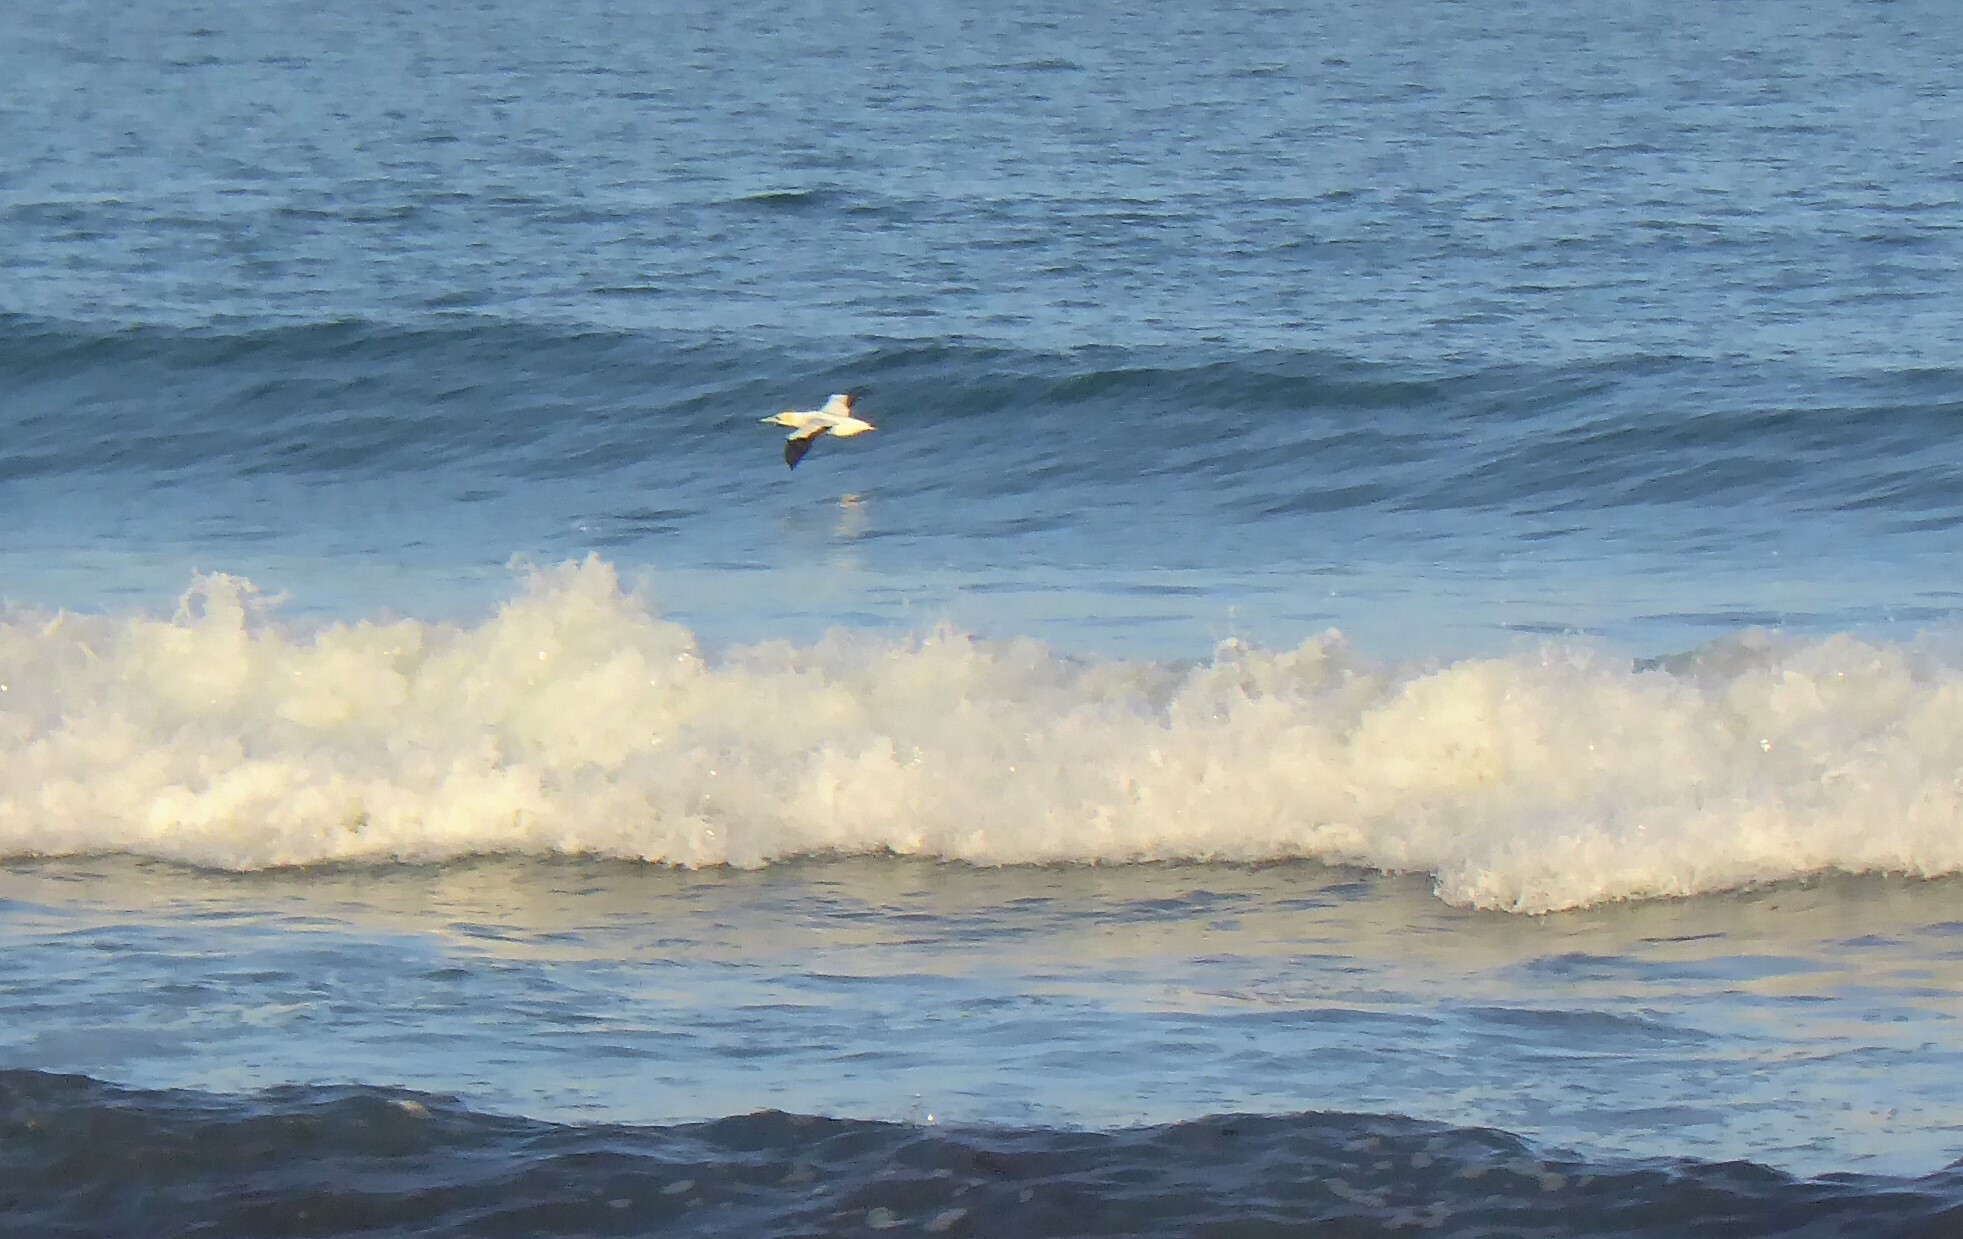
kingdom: Animalia
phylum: Chordata
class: Aves
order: Suliformes
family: Sulidae
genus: Morus
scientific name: Morus serrator
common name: Australasian gannet
